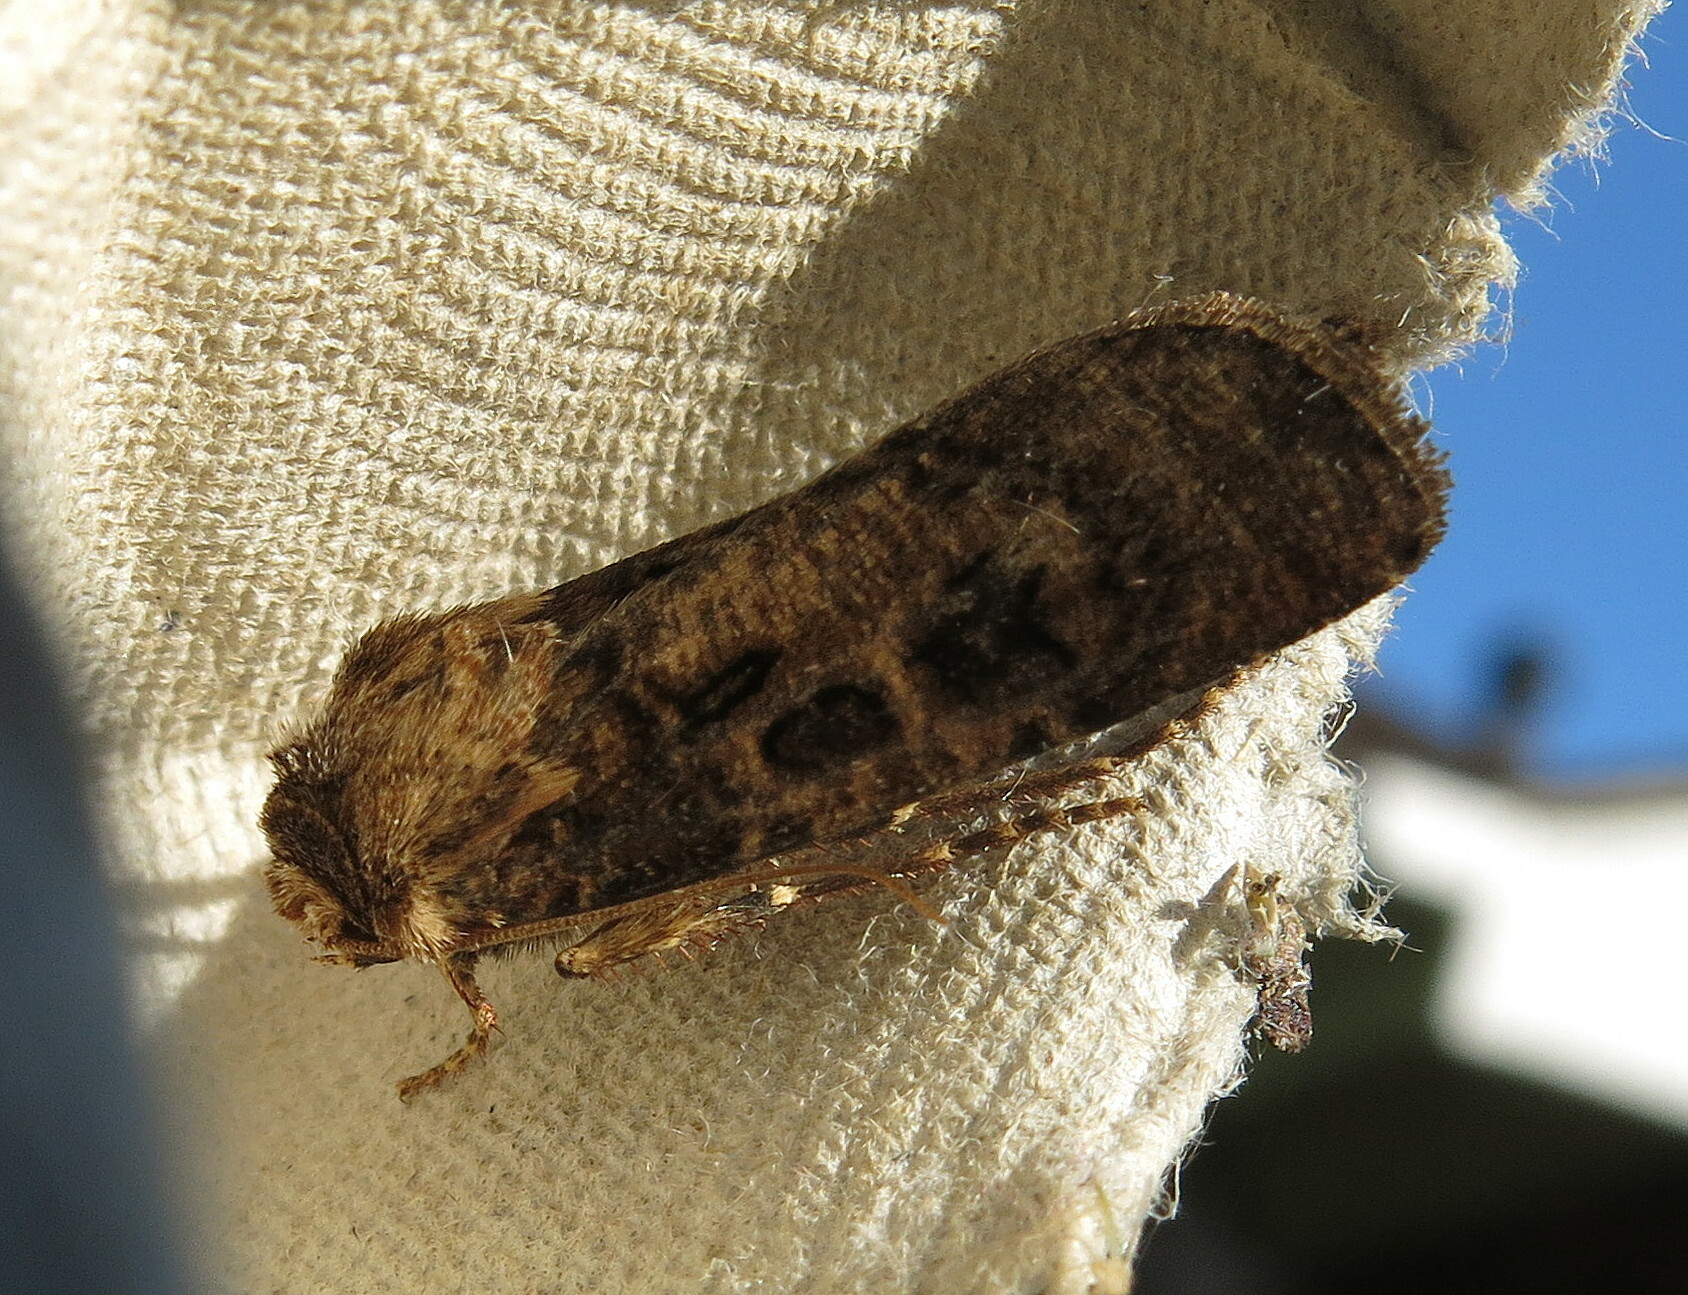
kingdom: Animalia
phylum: Arthropoda
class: Insecta
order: Lepidoptera
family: Noctuidae
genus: Agrotis
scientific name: Agrotis clavis
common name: Heart and club
